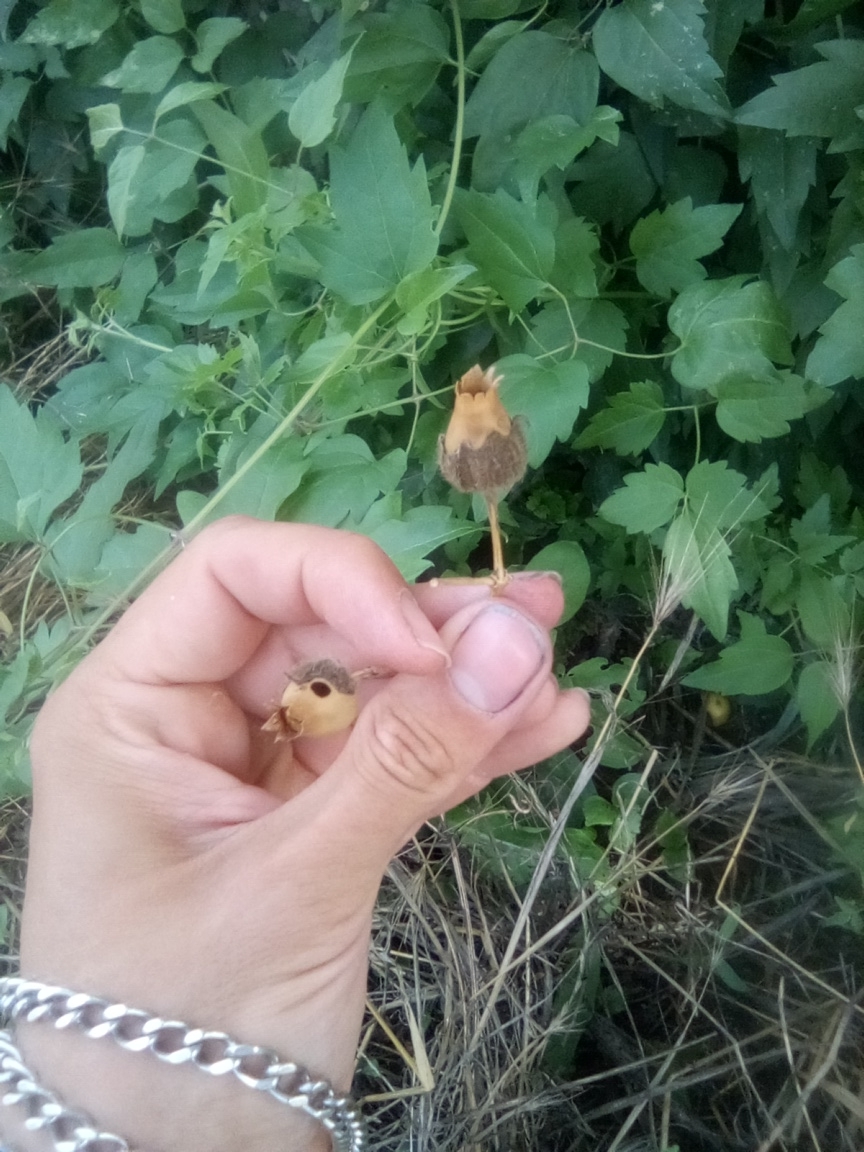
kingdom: Plantae
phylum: Tracheophyta
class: Magnoliopsida
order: Caryophyllales
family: Caryophyllaceae
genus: Silene
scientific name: Silene latifolia
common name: White campion
